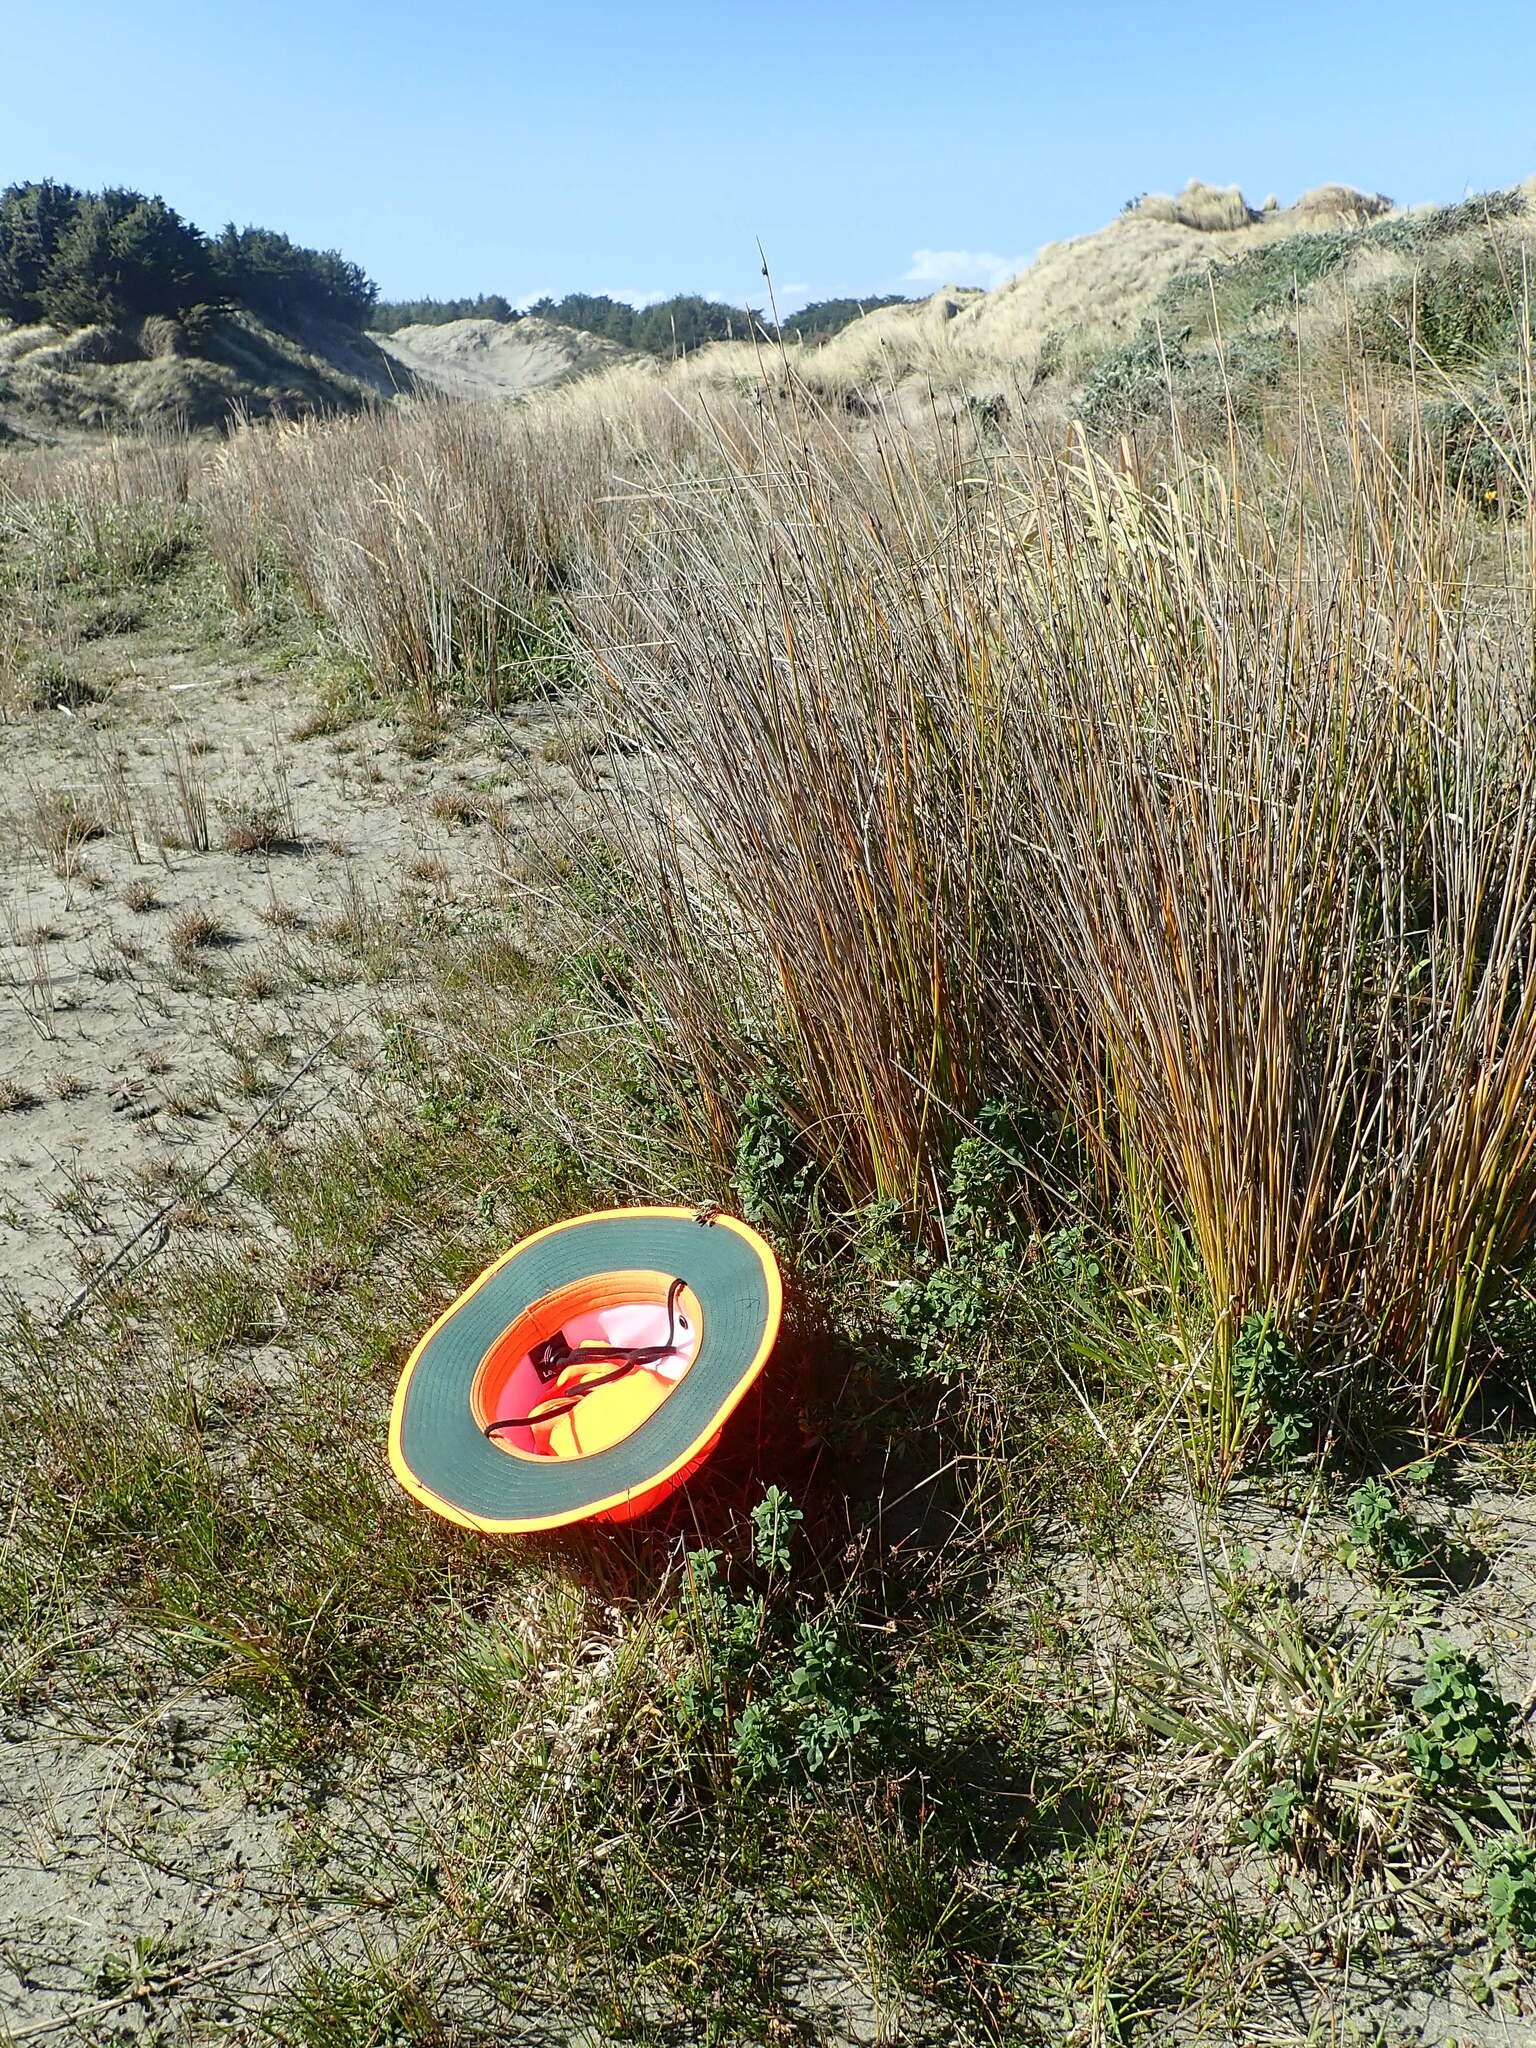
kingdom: Plantae
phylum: Tracheophyta
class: Magnoliopsida
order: Fabales
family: Fabaceae
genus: Melilotus
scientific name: Melilotus indicus
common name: Small melilot
